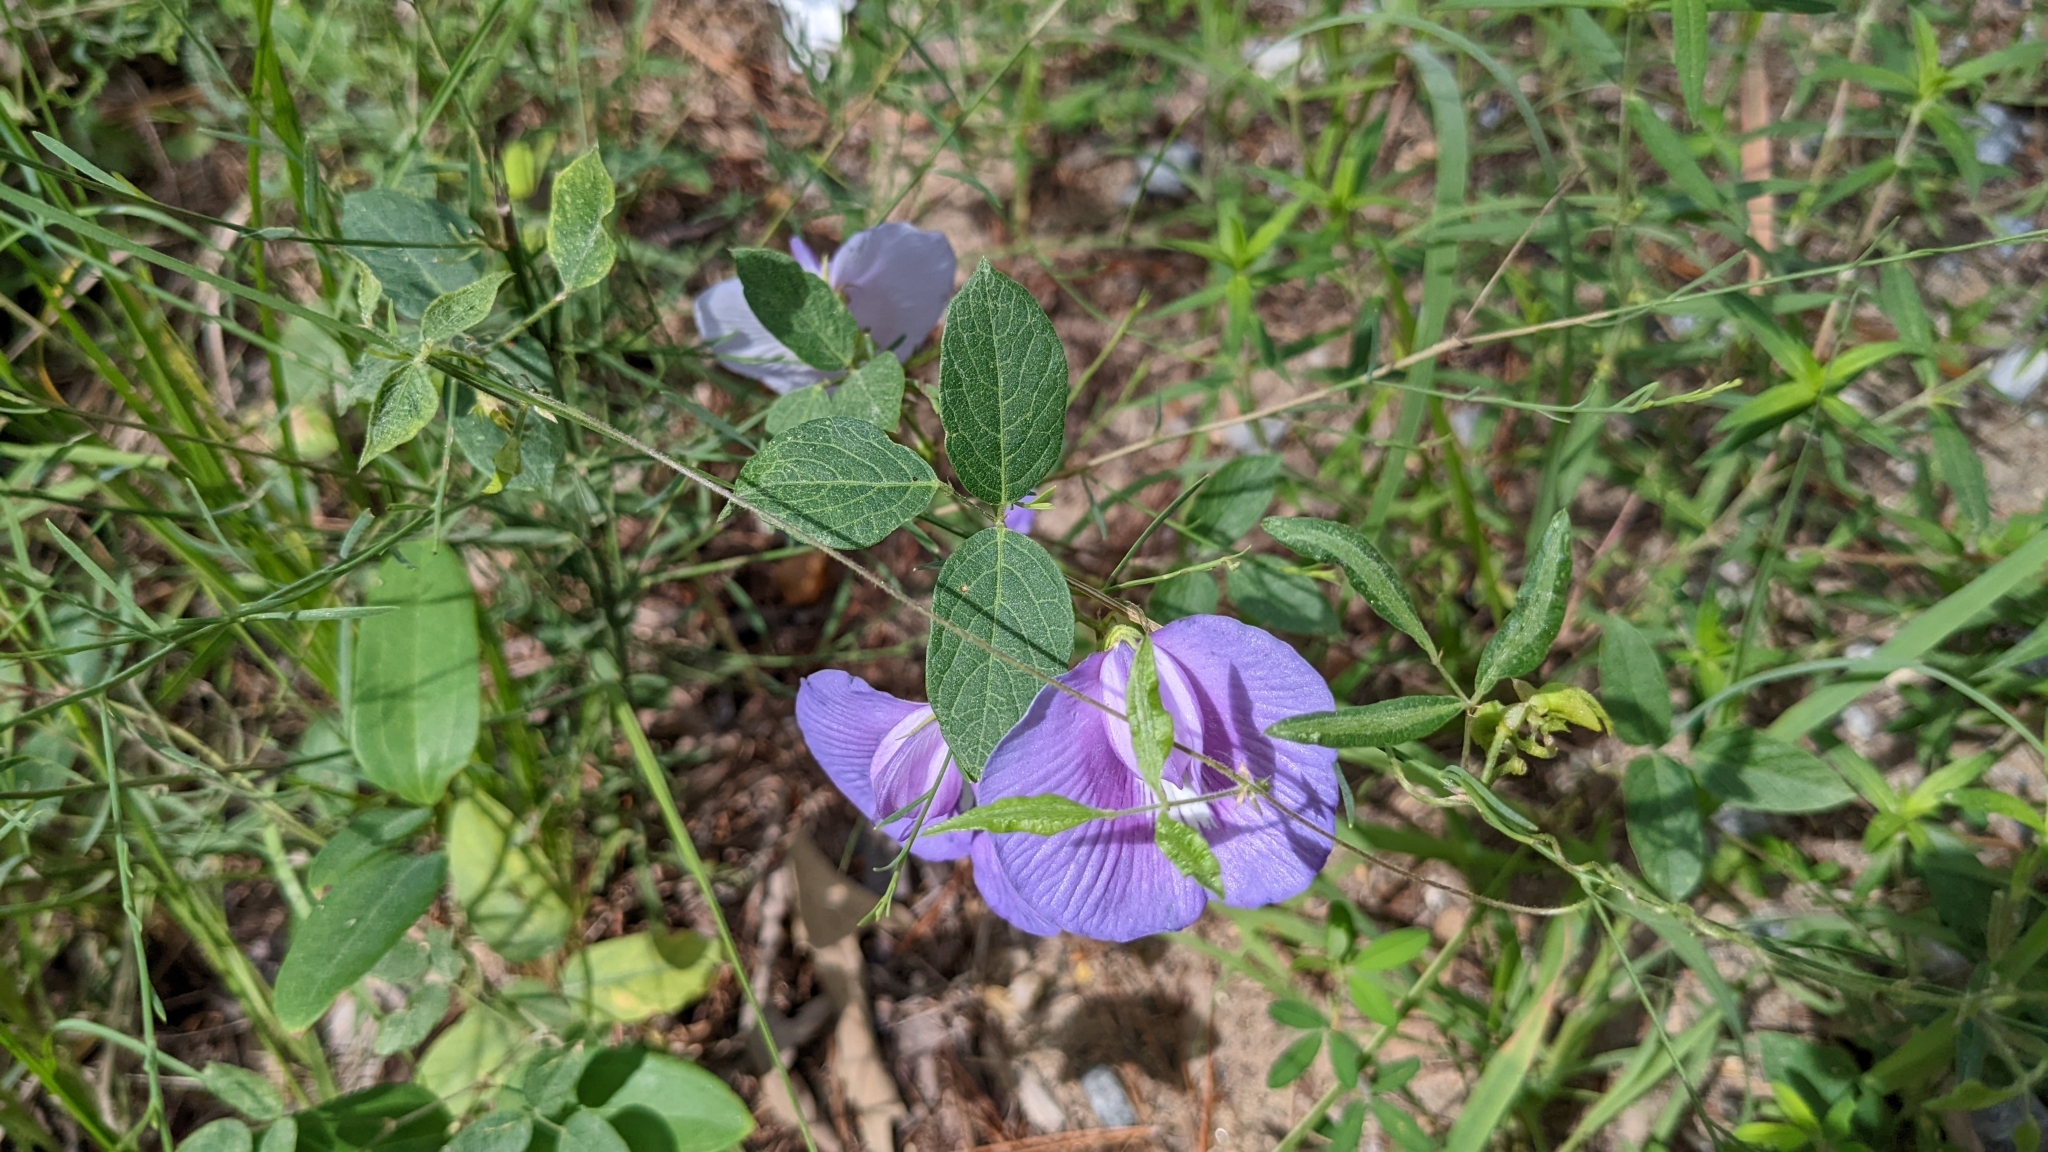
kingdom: Plantae
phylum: Tracheophyta
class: Magnoliopsida
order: Fabales
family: Fabaceae
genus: Centrosema
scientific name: Centrosema virginianum
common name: Butterfly-pea
